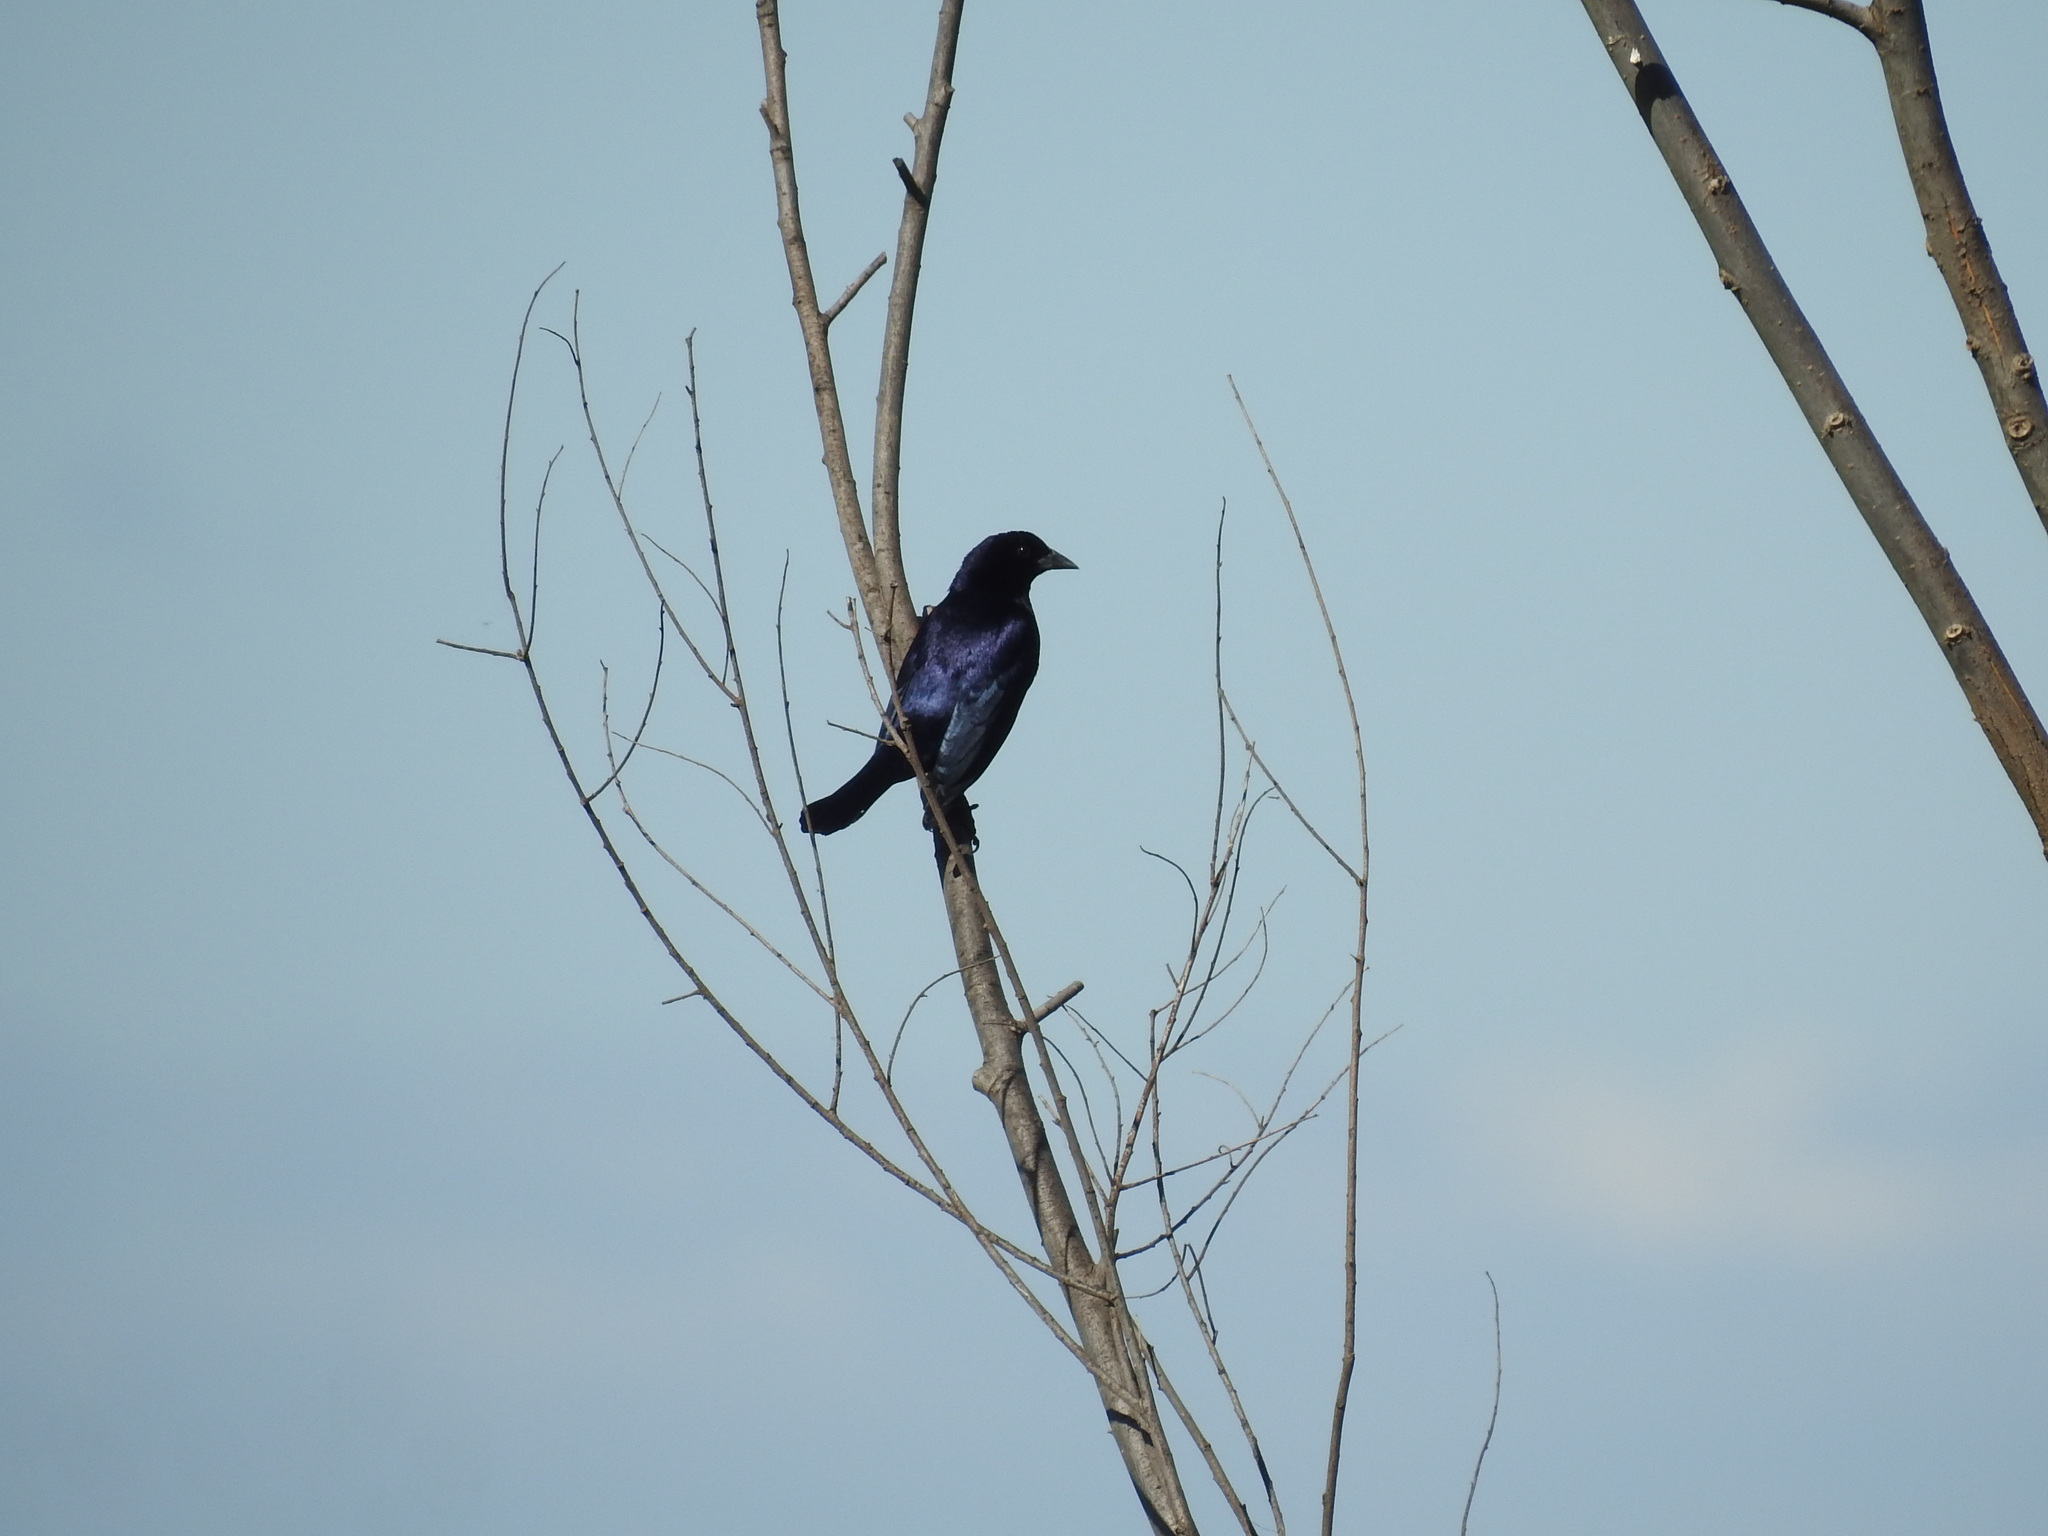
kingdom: Animalia
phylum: Chordata
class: Aves
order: Passeriformes
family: Icteridae
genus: Molothrus
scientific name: Molothrus bonariensis
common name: Shiny cowbird
